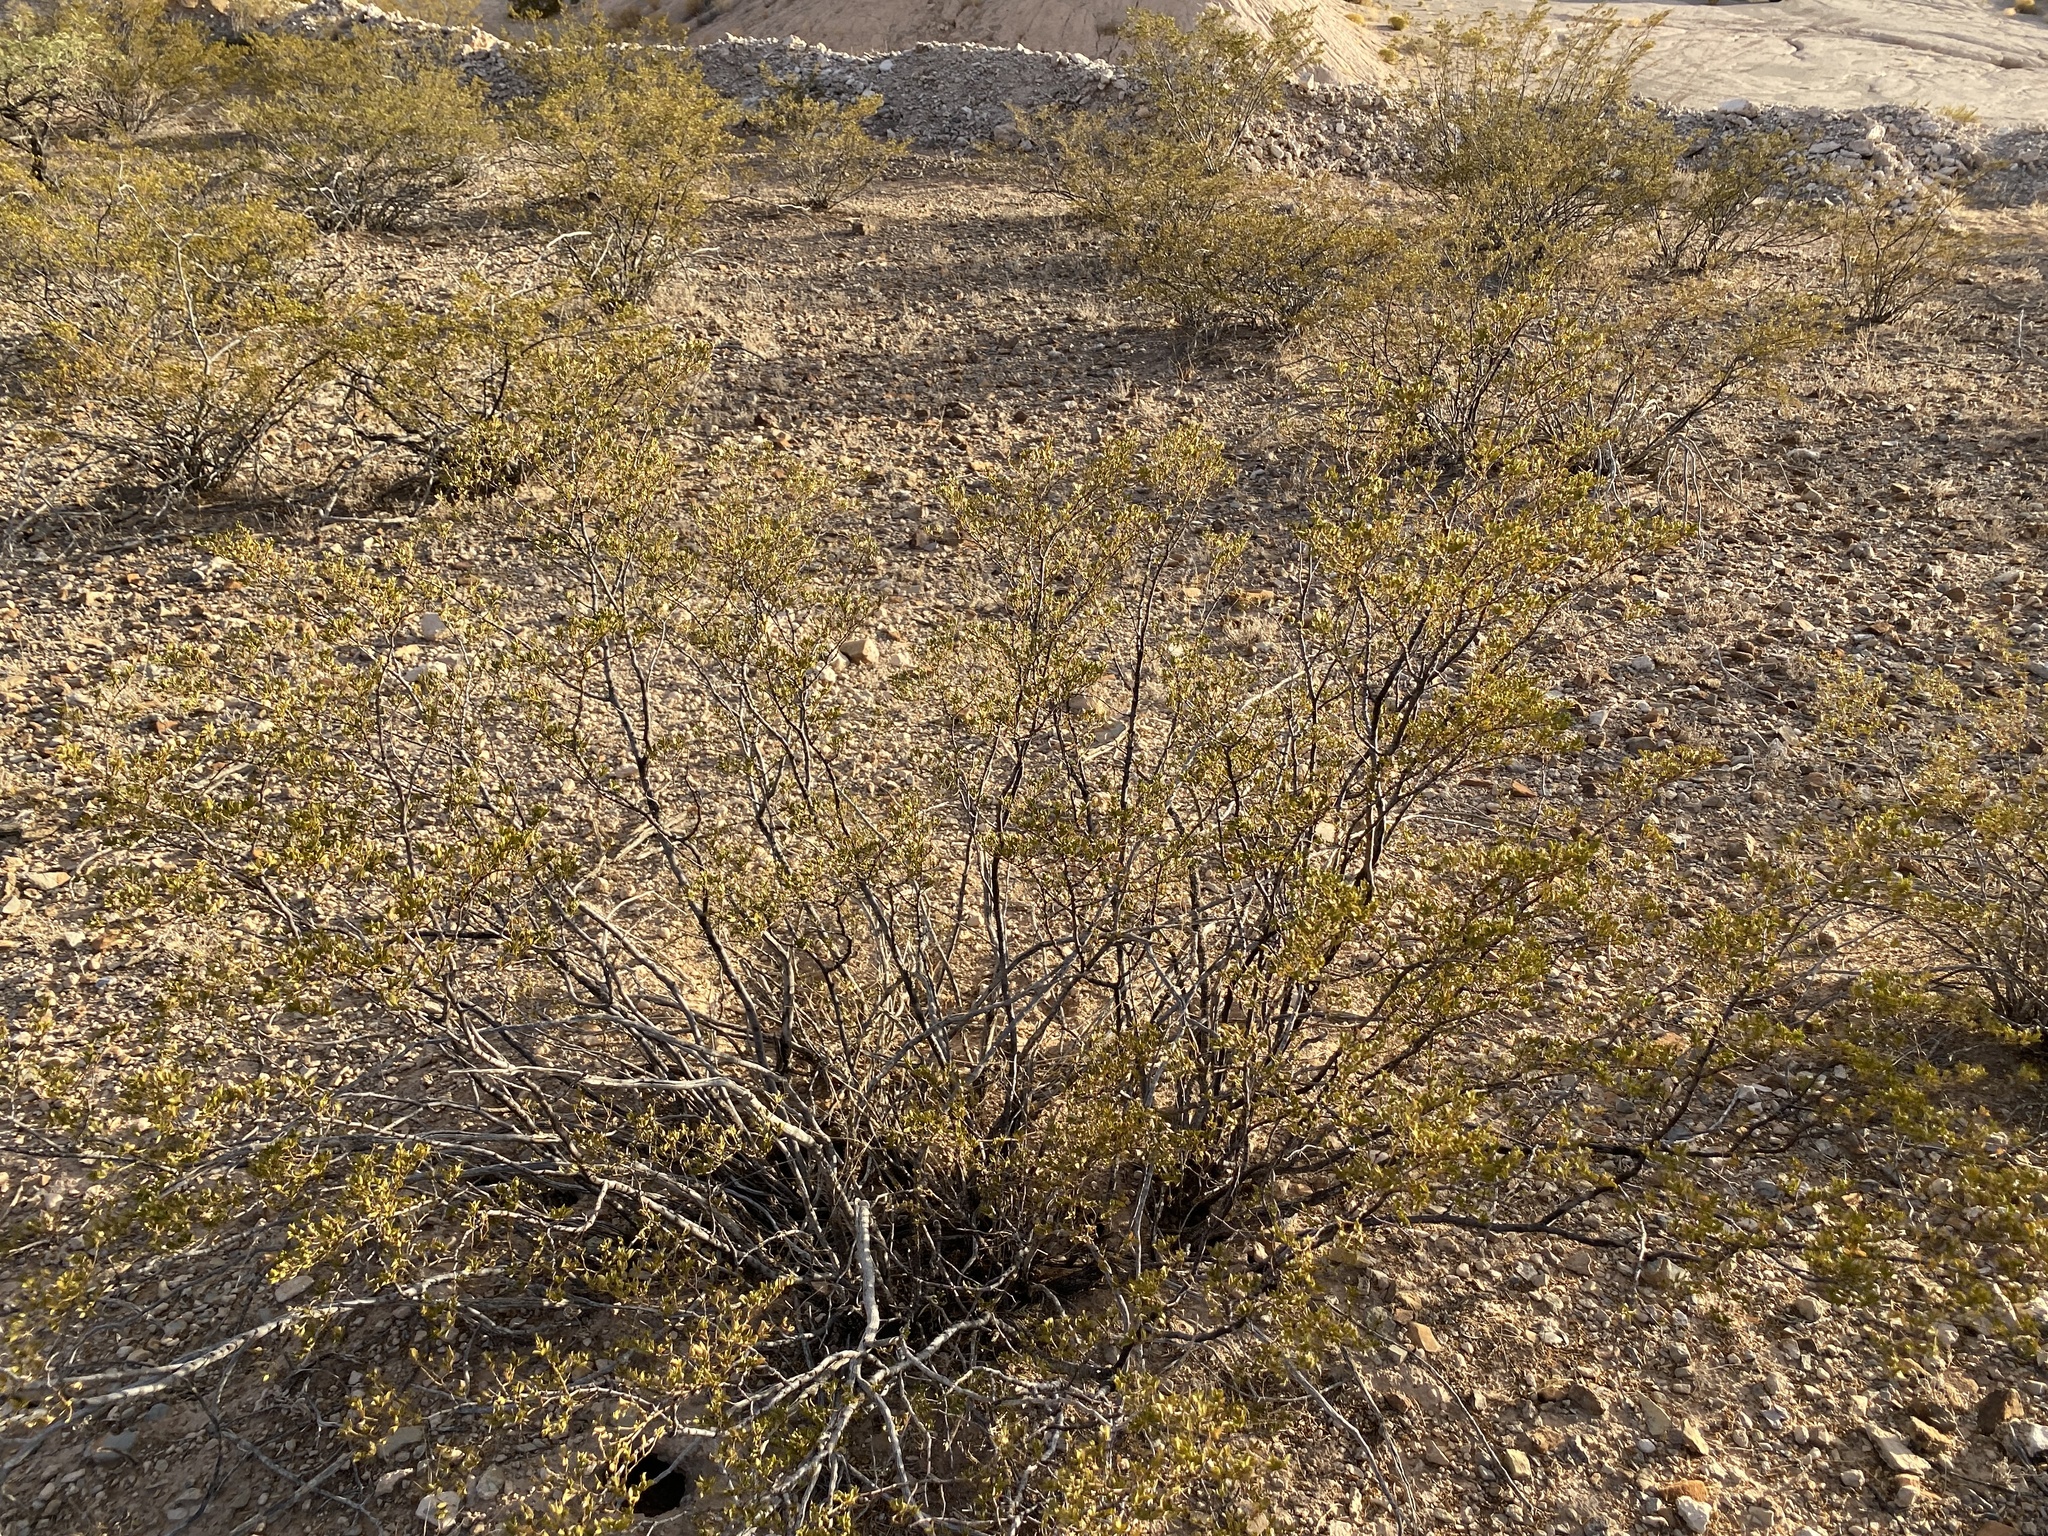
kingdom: Plantae
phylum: Tracheophyta
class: Magnoliopsida
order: Zygophyllales
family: Zygophyllaceae
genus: Larrea
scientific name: Larrea tridentata
